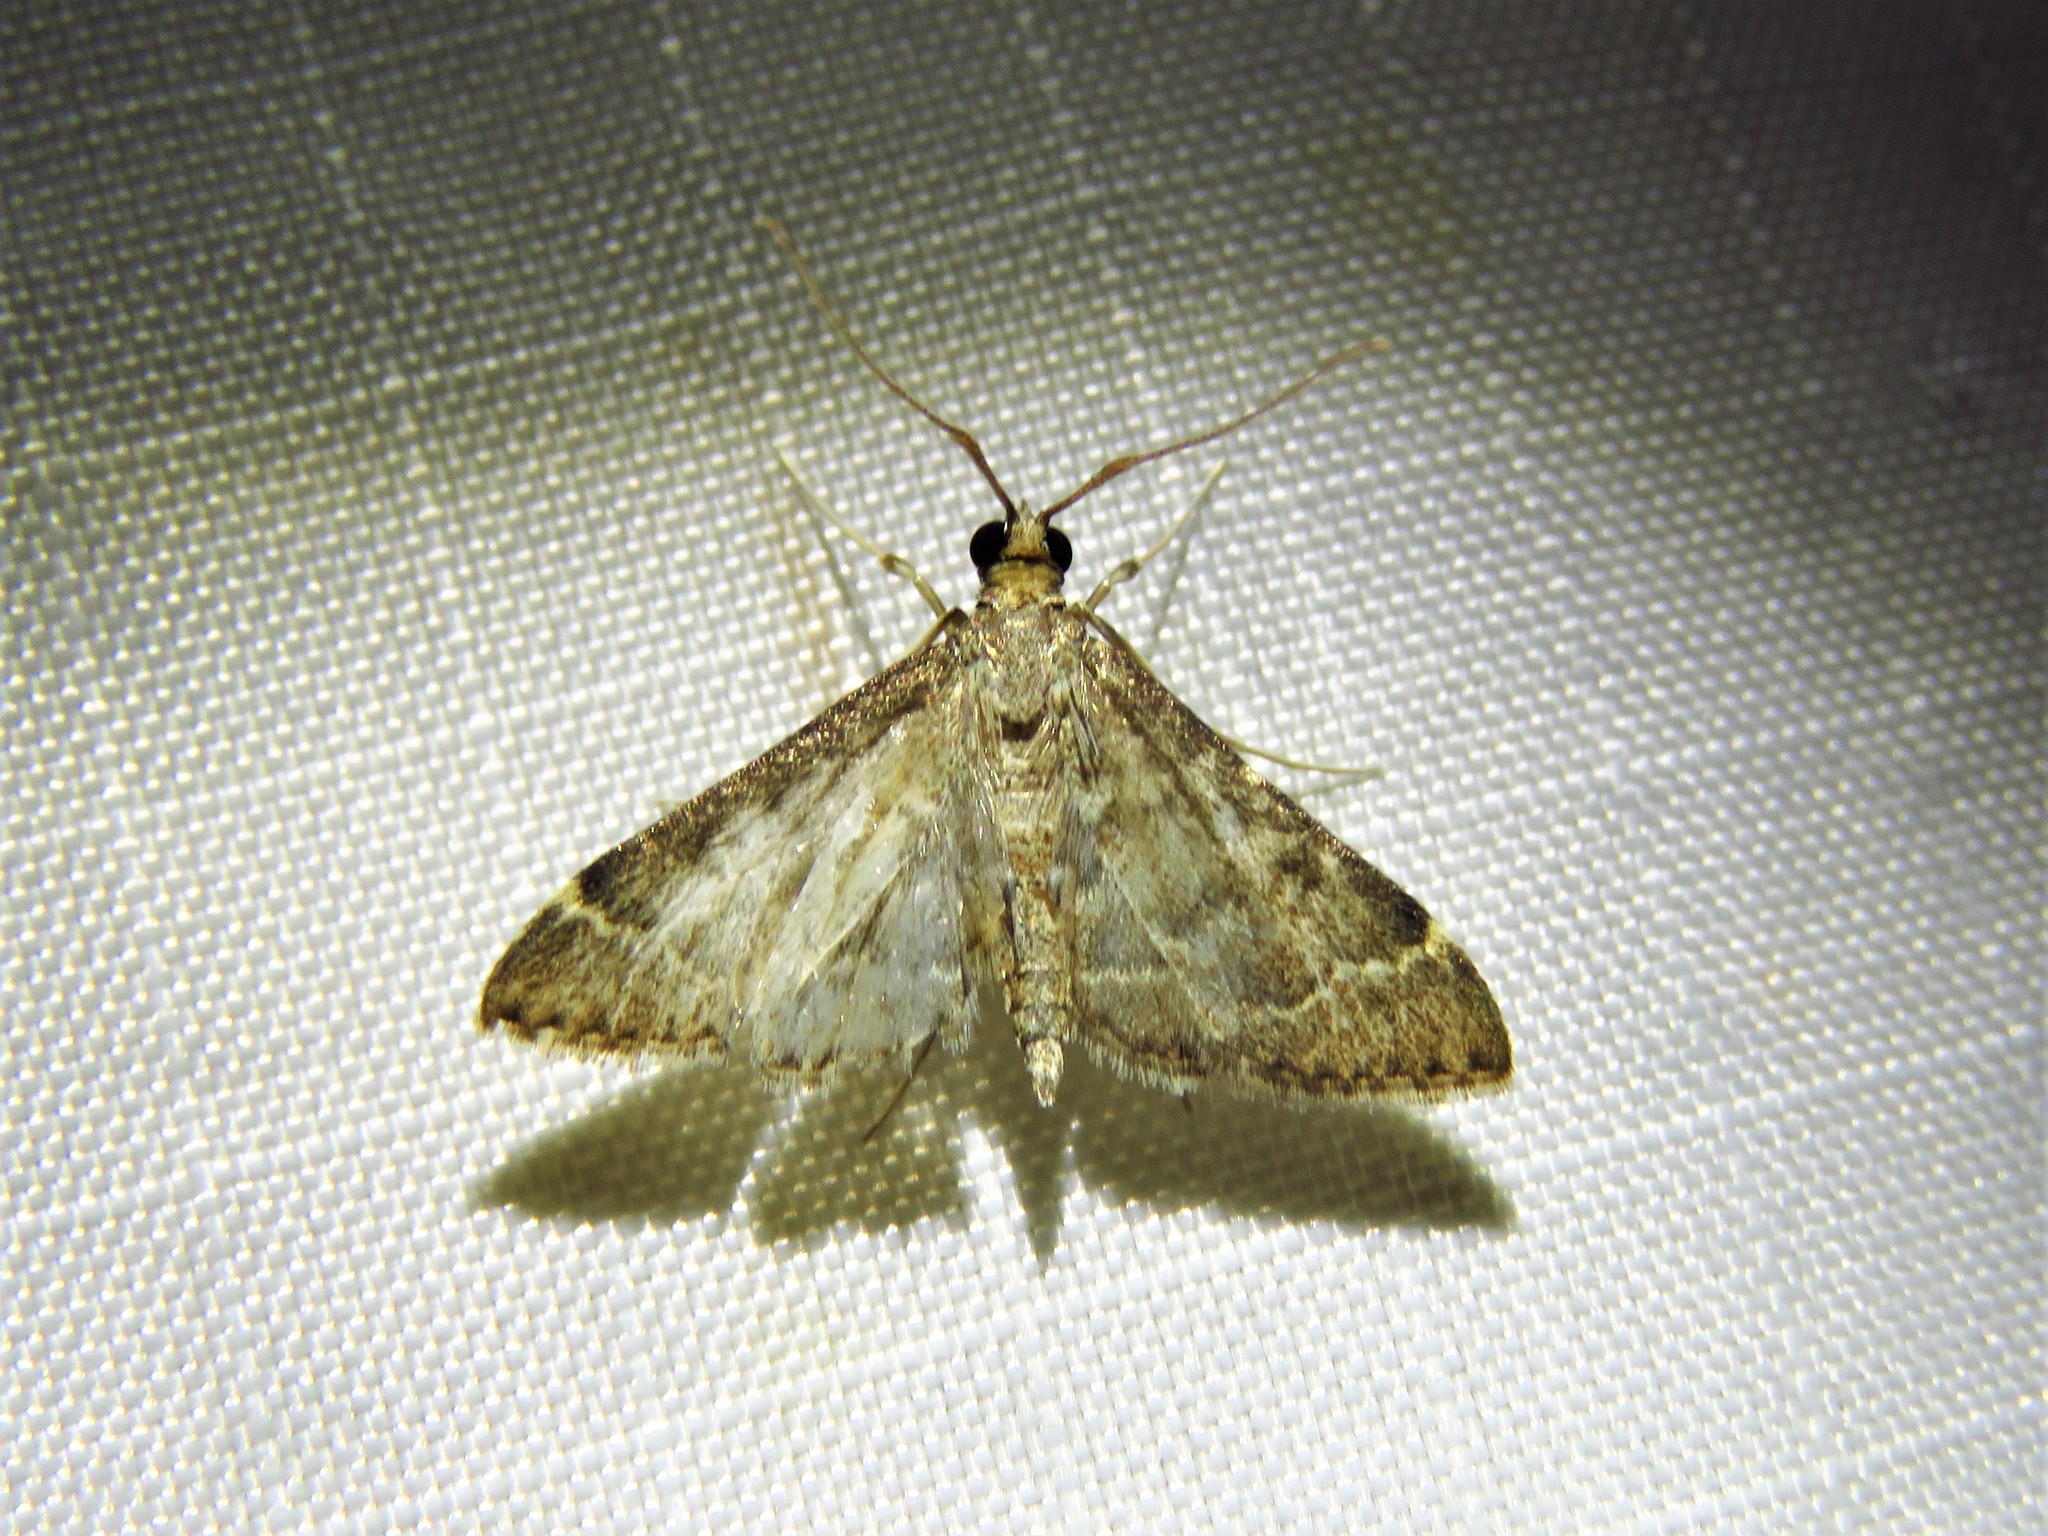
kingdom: Animalia
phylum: Arthropoda
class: Insecta
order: Lepidoptera
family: Crambidae
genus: Steniodes
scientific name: Steniodes mendica
